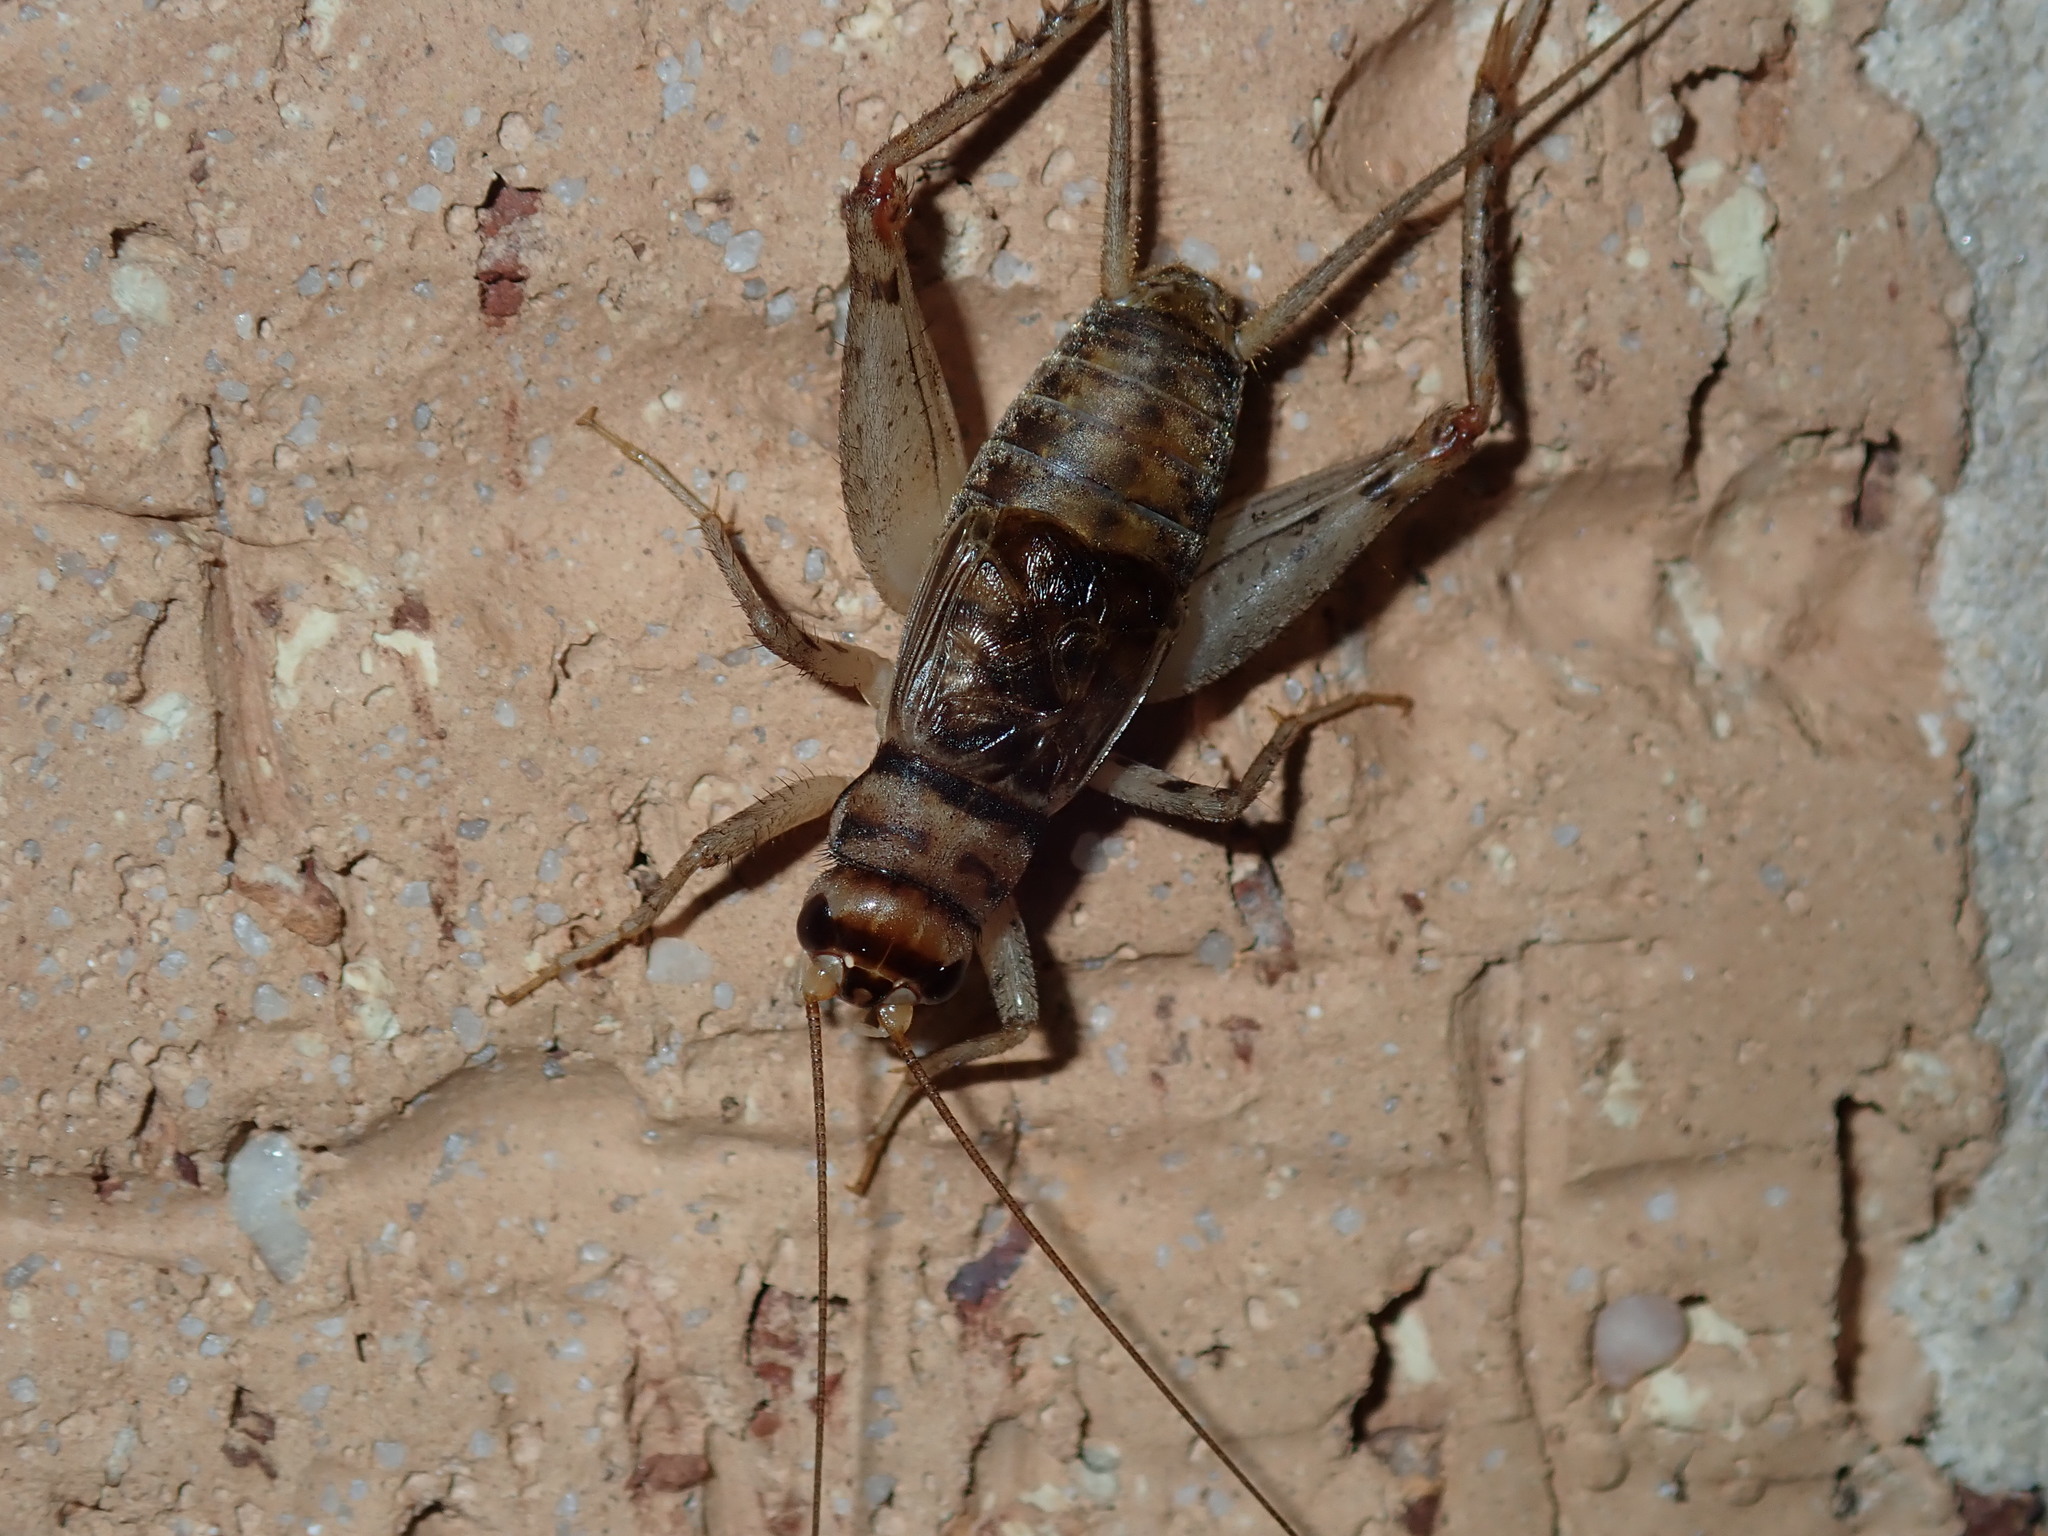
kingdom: Animalia
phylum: Arthropoda
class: Insecta
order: Orthoptera
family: Gryllidae
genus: Gryllodes
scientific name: Gryllodes sigillatus
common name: Tropical house cricket
